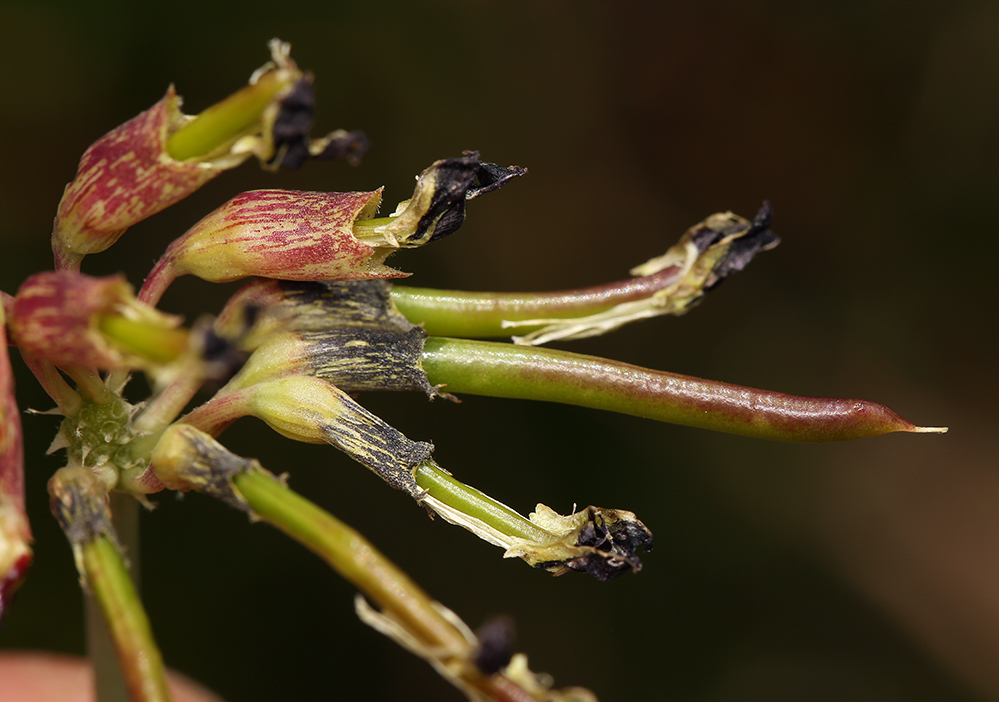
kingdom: Plantae
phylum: Tracheophyta
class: Magnoliopsida
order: Fabales
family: Fabaceae
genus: Hosackia
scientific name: Hosackia crassifolia
